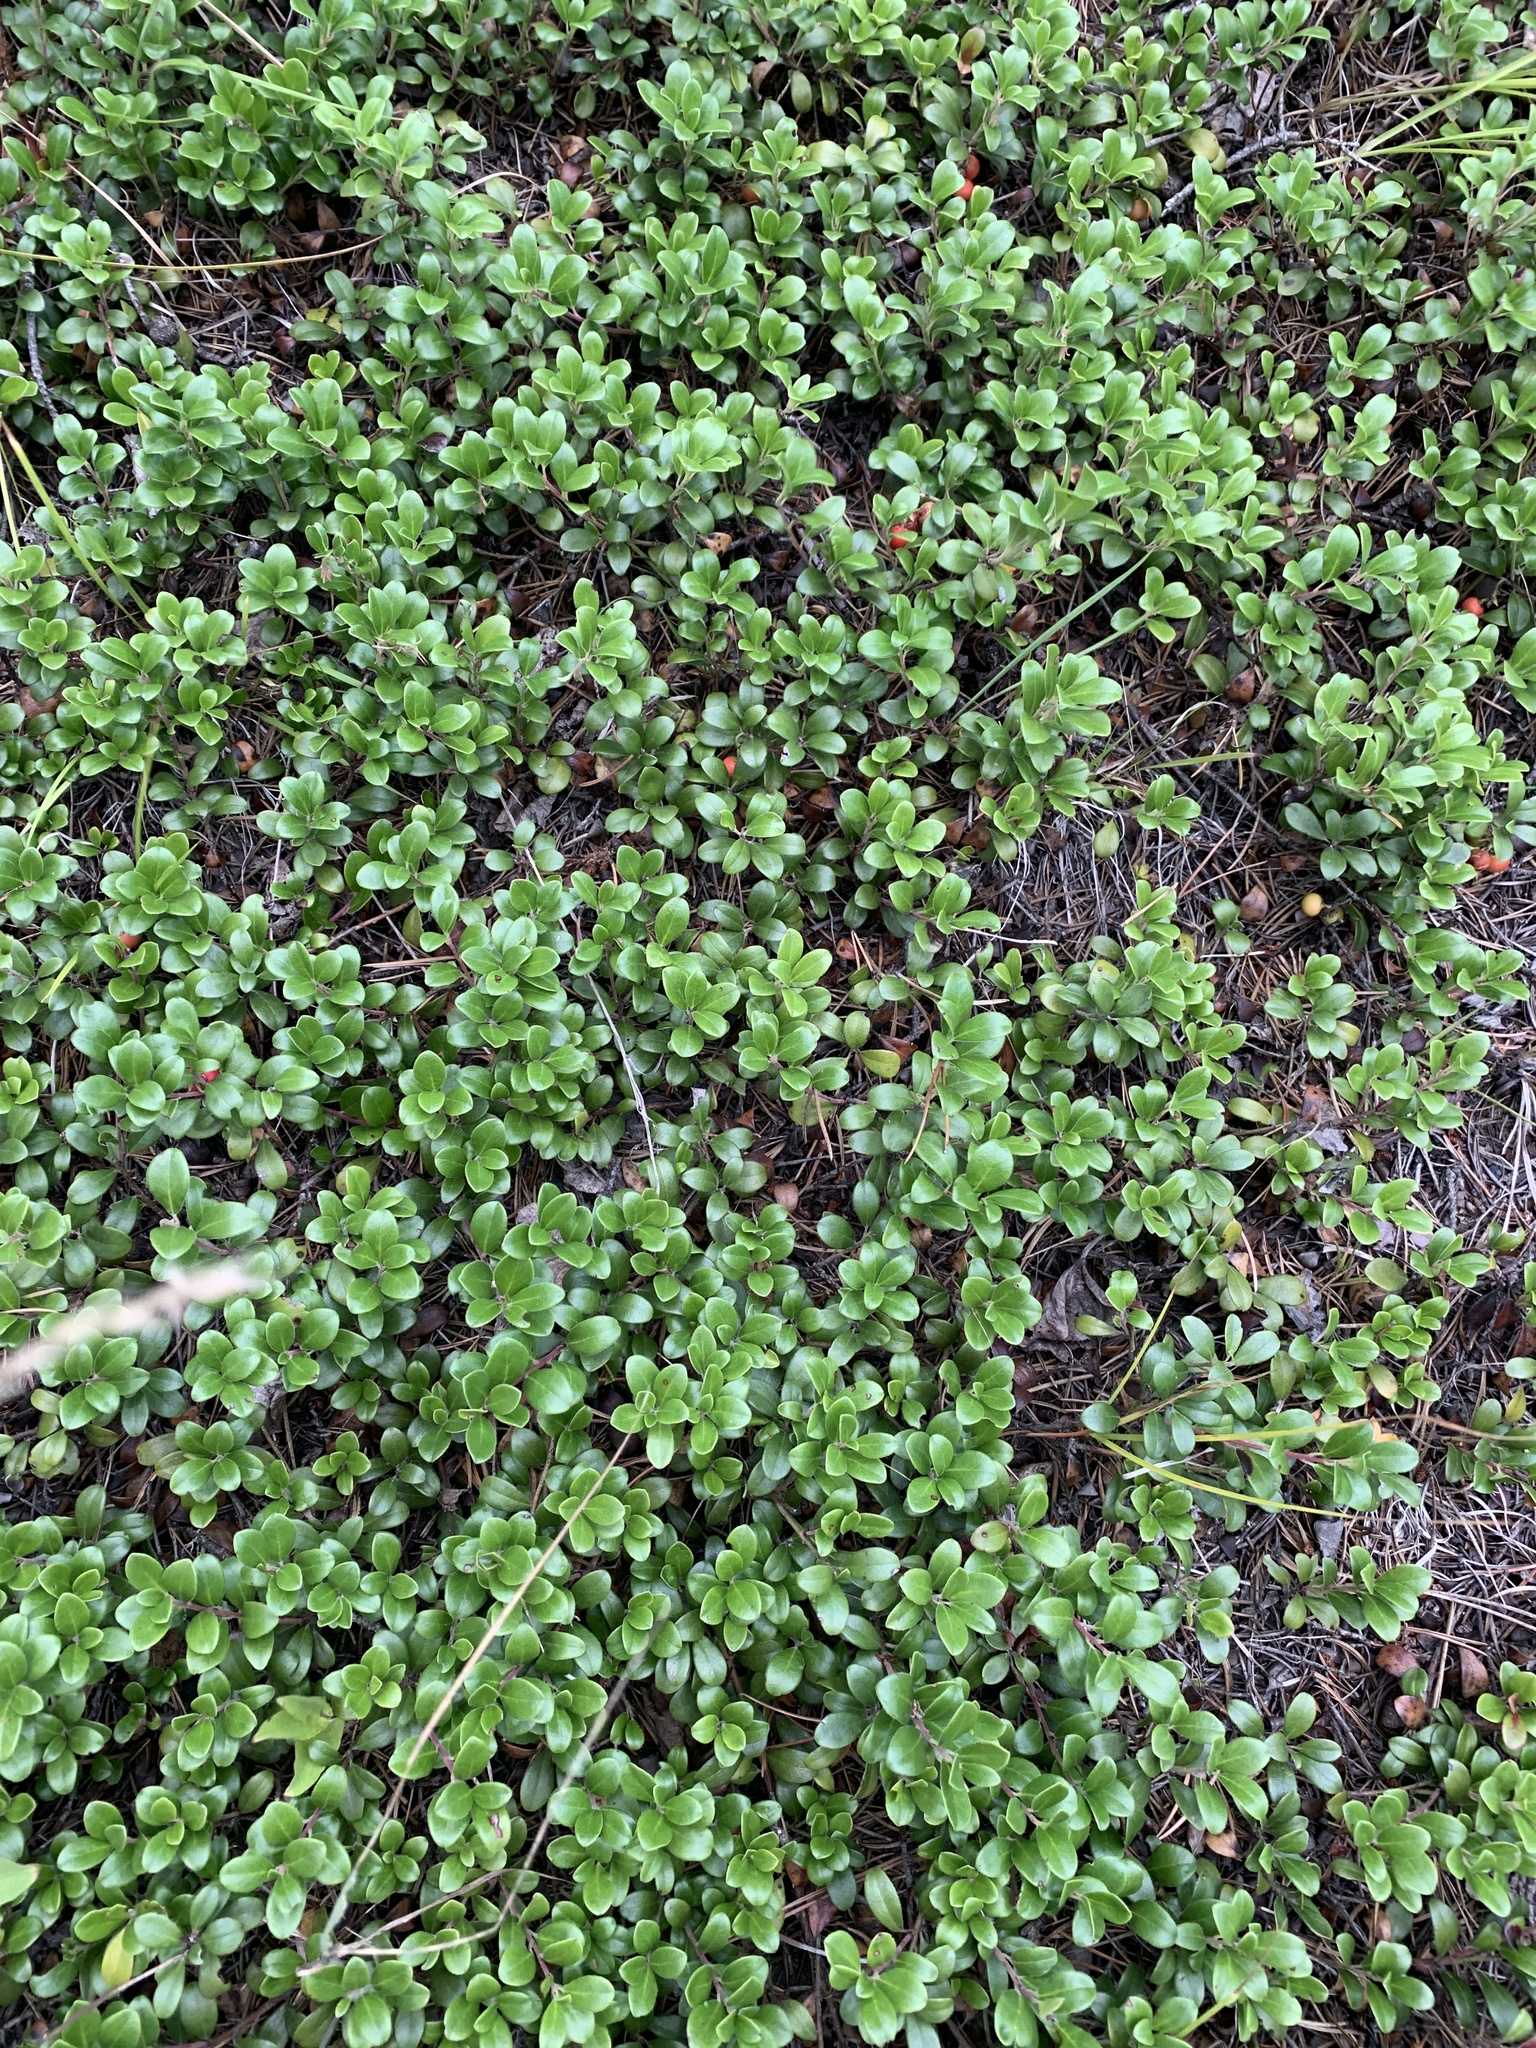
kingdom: Plantae
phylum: Tracheophyta
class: Magnoliopsida
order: Ericales
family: Ericaceae
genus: Arctostaphylos
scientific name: Arctostaphylos uva-ursi
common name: Bearberry
